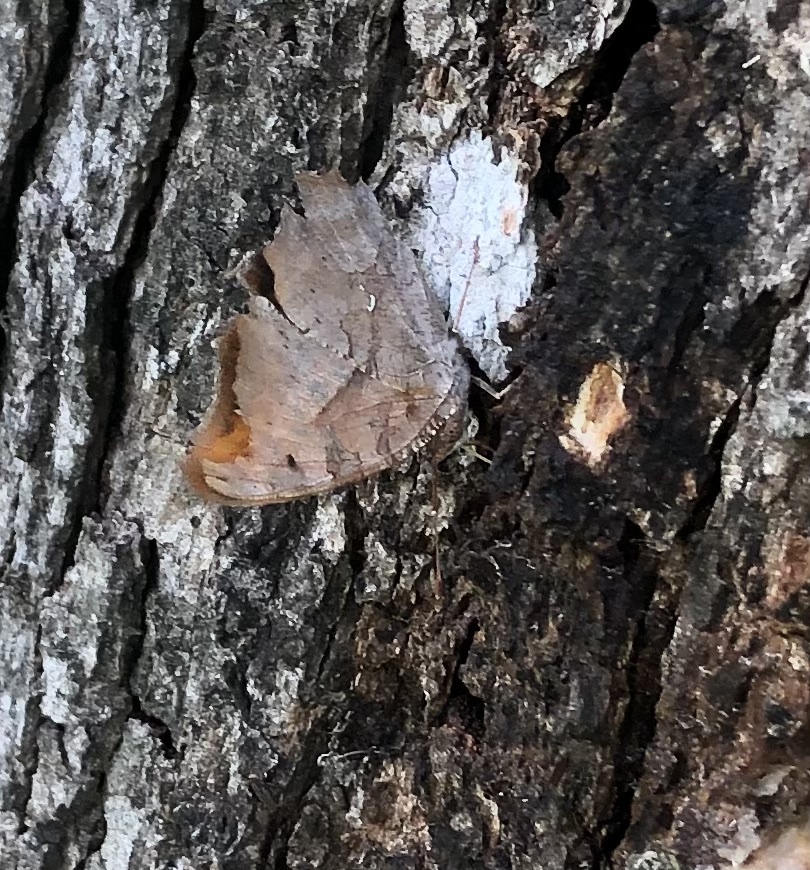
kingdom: Animalia
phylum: Arthropoda
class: Insecta
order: Lepidoptera
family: Nymphalidae
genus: Polygonia
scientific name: Polygonia interrogationis
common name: Question mark
